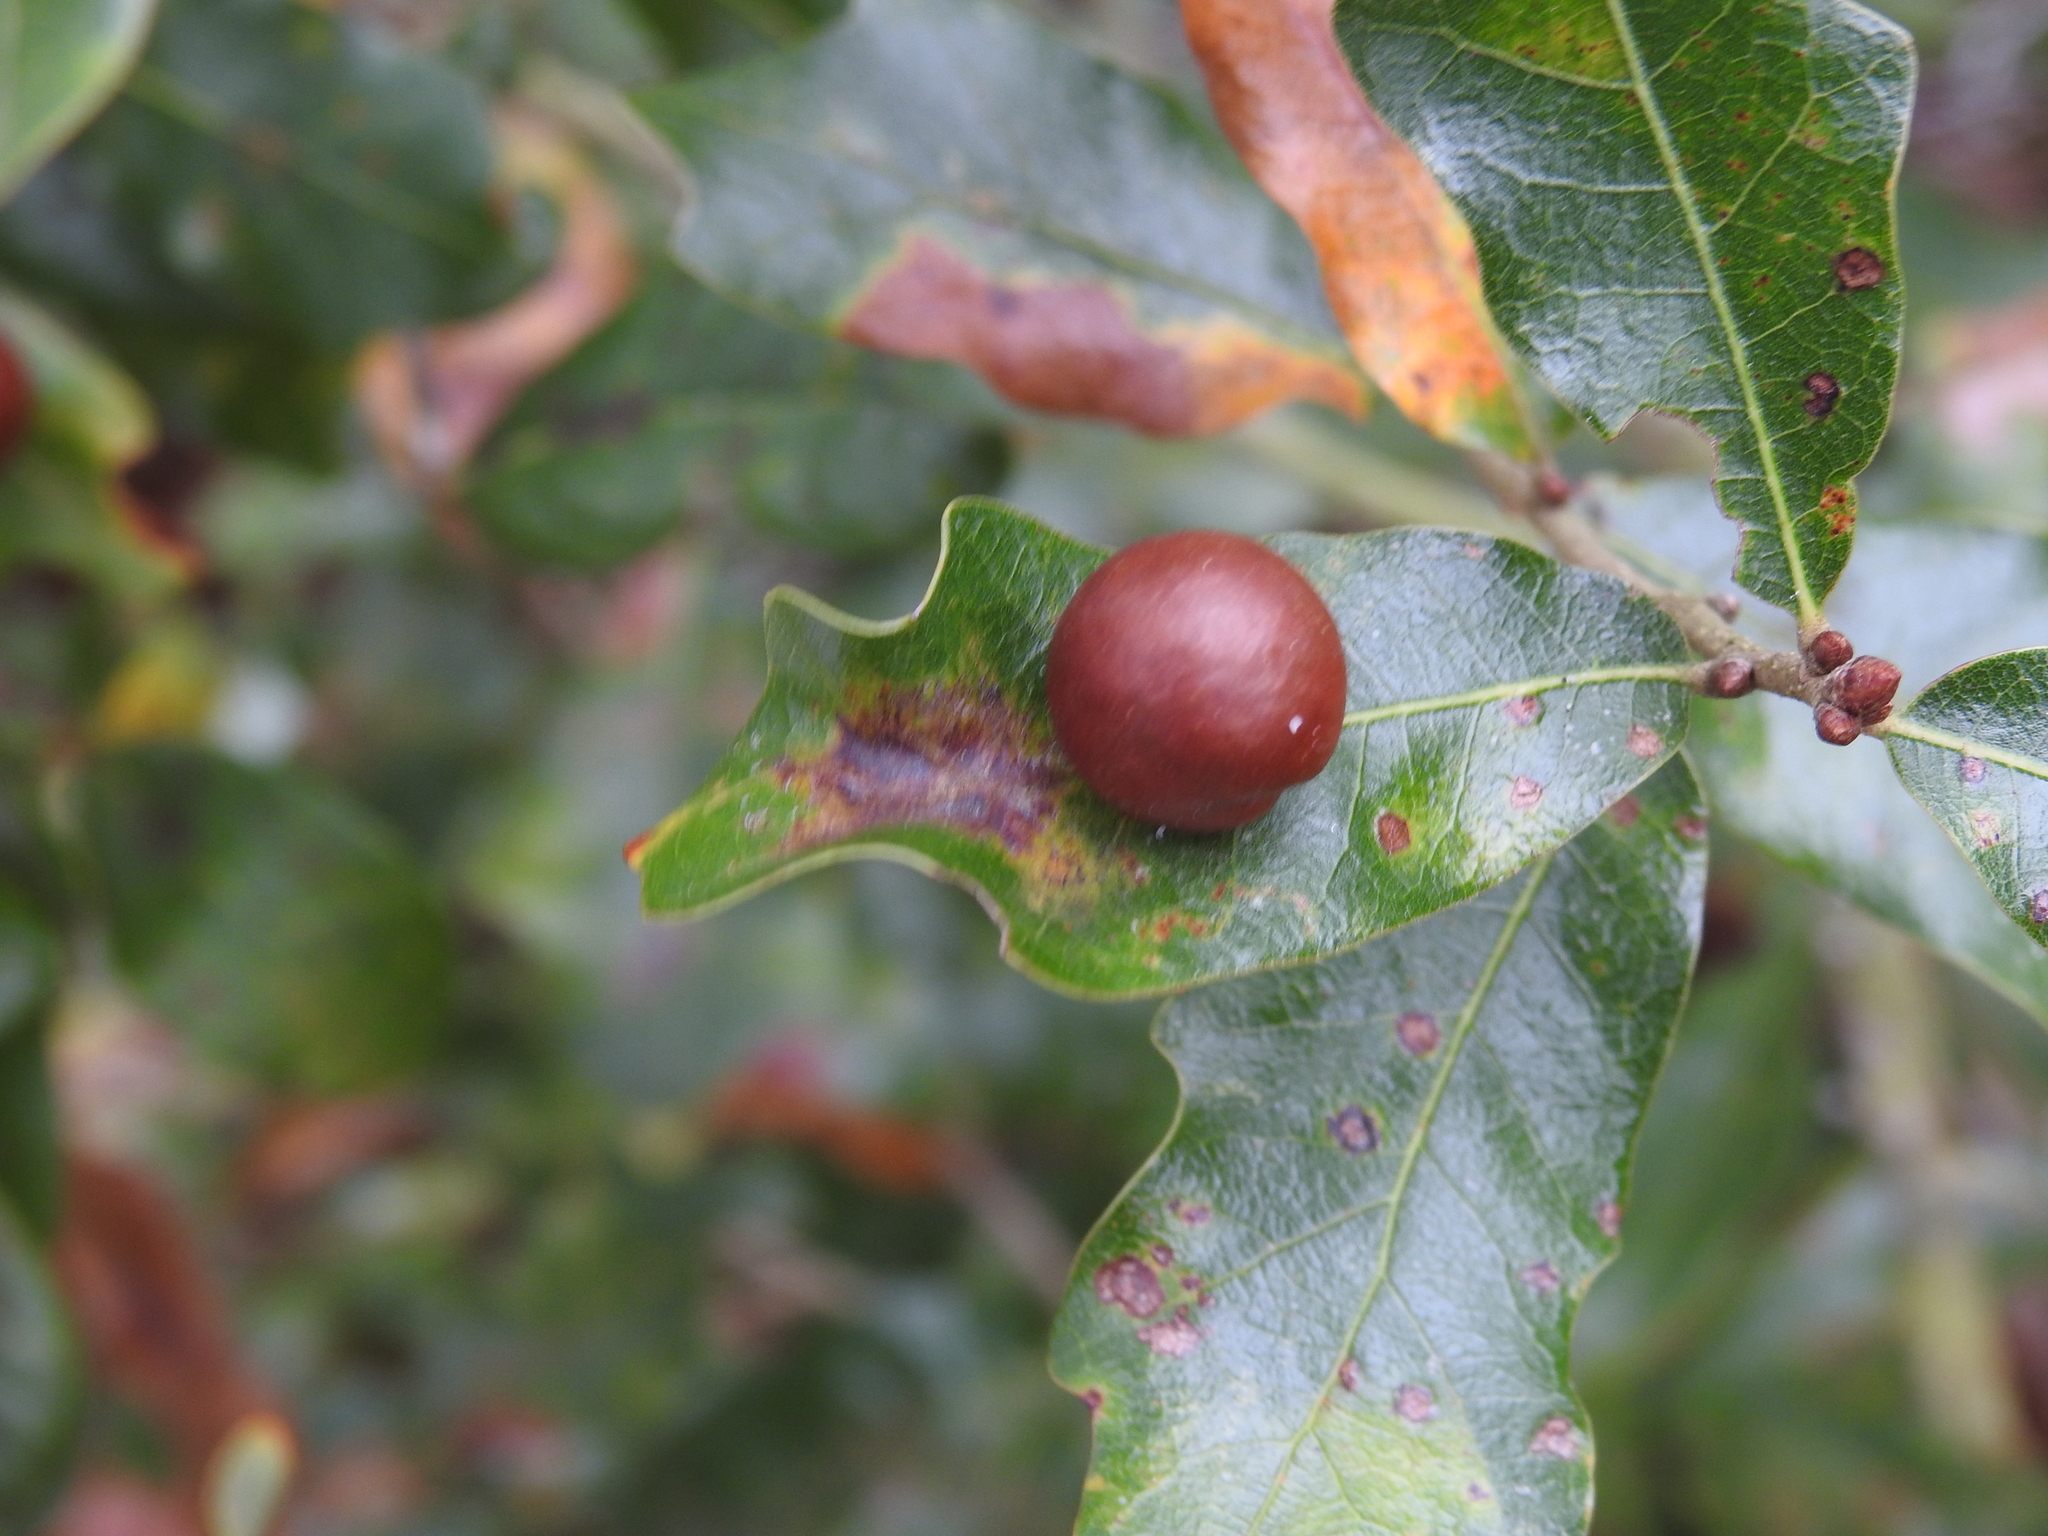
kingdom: Animalia
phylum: Arthropoda
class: Insecta
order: Hymenoptera
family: Cynipidae
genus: Trigonaspis
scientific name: Trigonaspis
